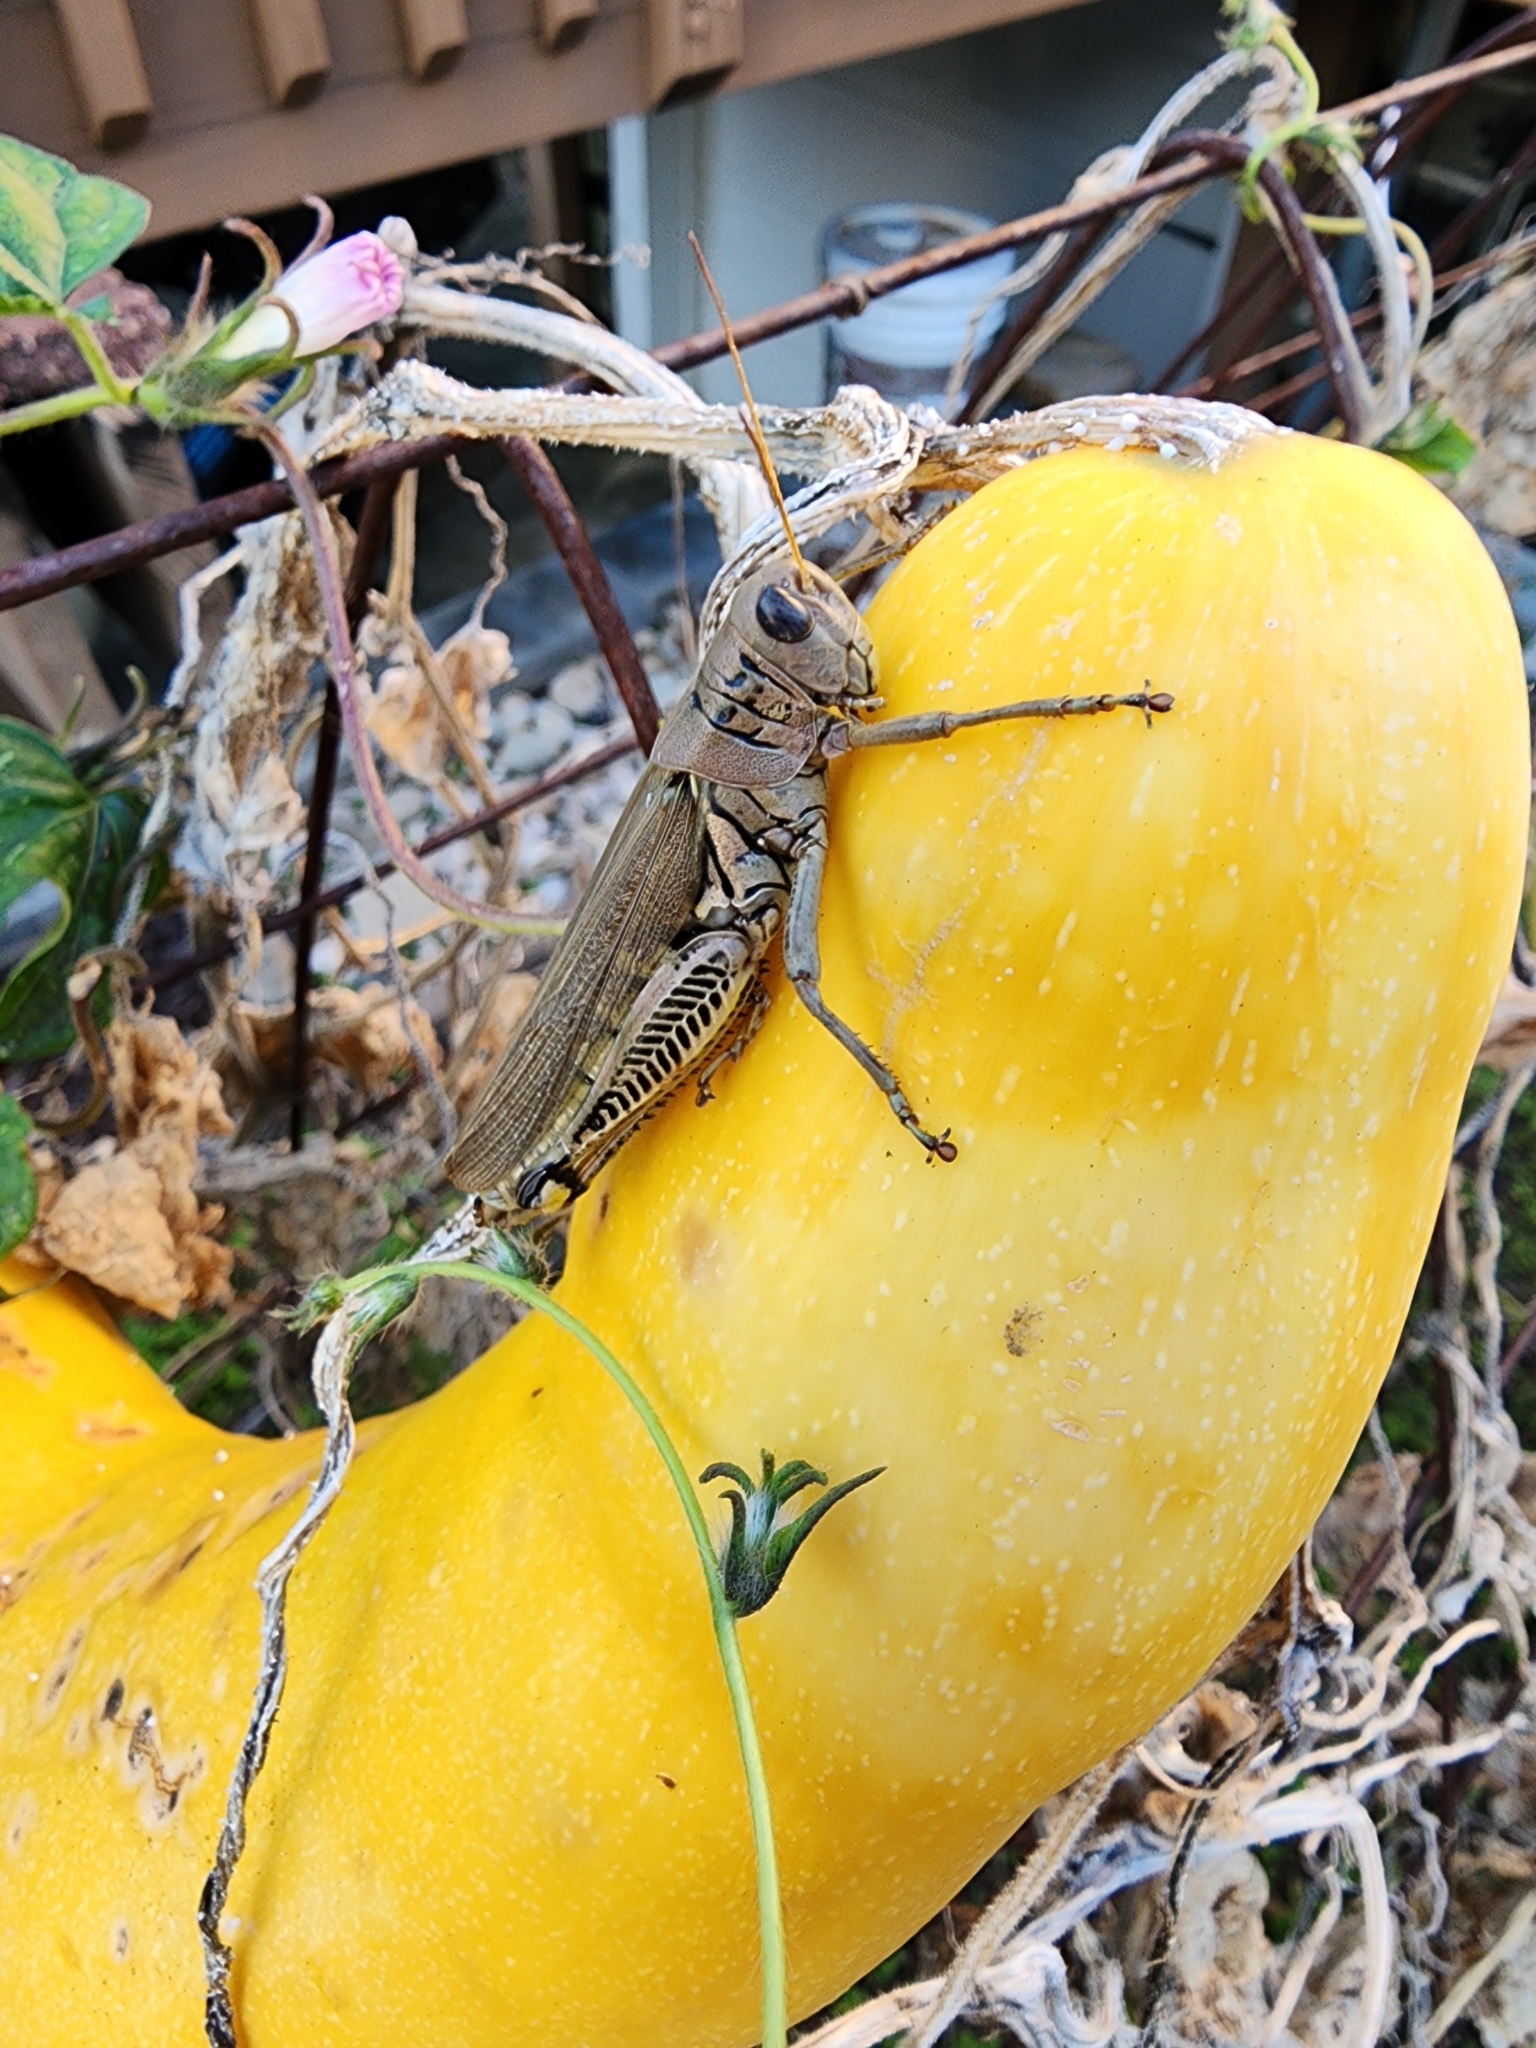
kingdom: Animalia
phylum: Arthropoda
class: Insecta
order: Orthoptera
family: Acrididae
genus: Melanoplus
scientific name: Melanoplus differentialis
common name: Differential grasshopper
